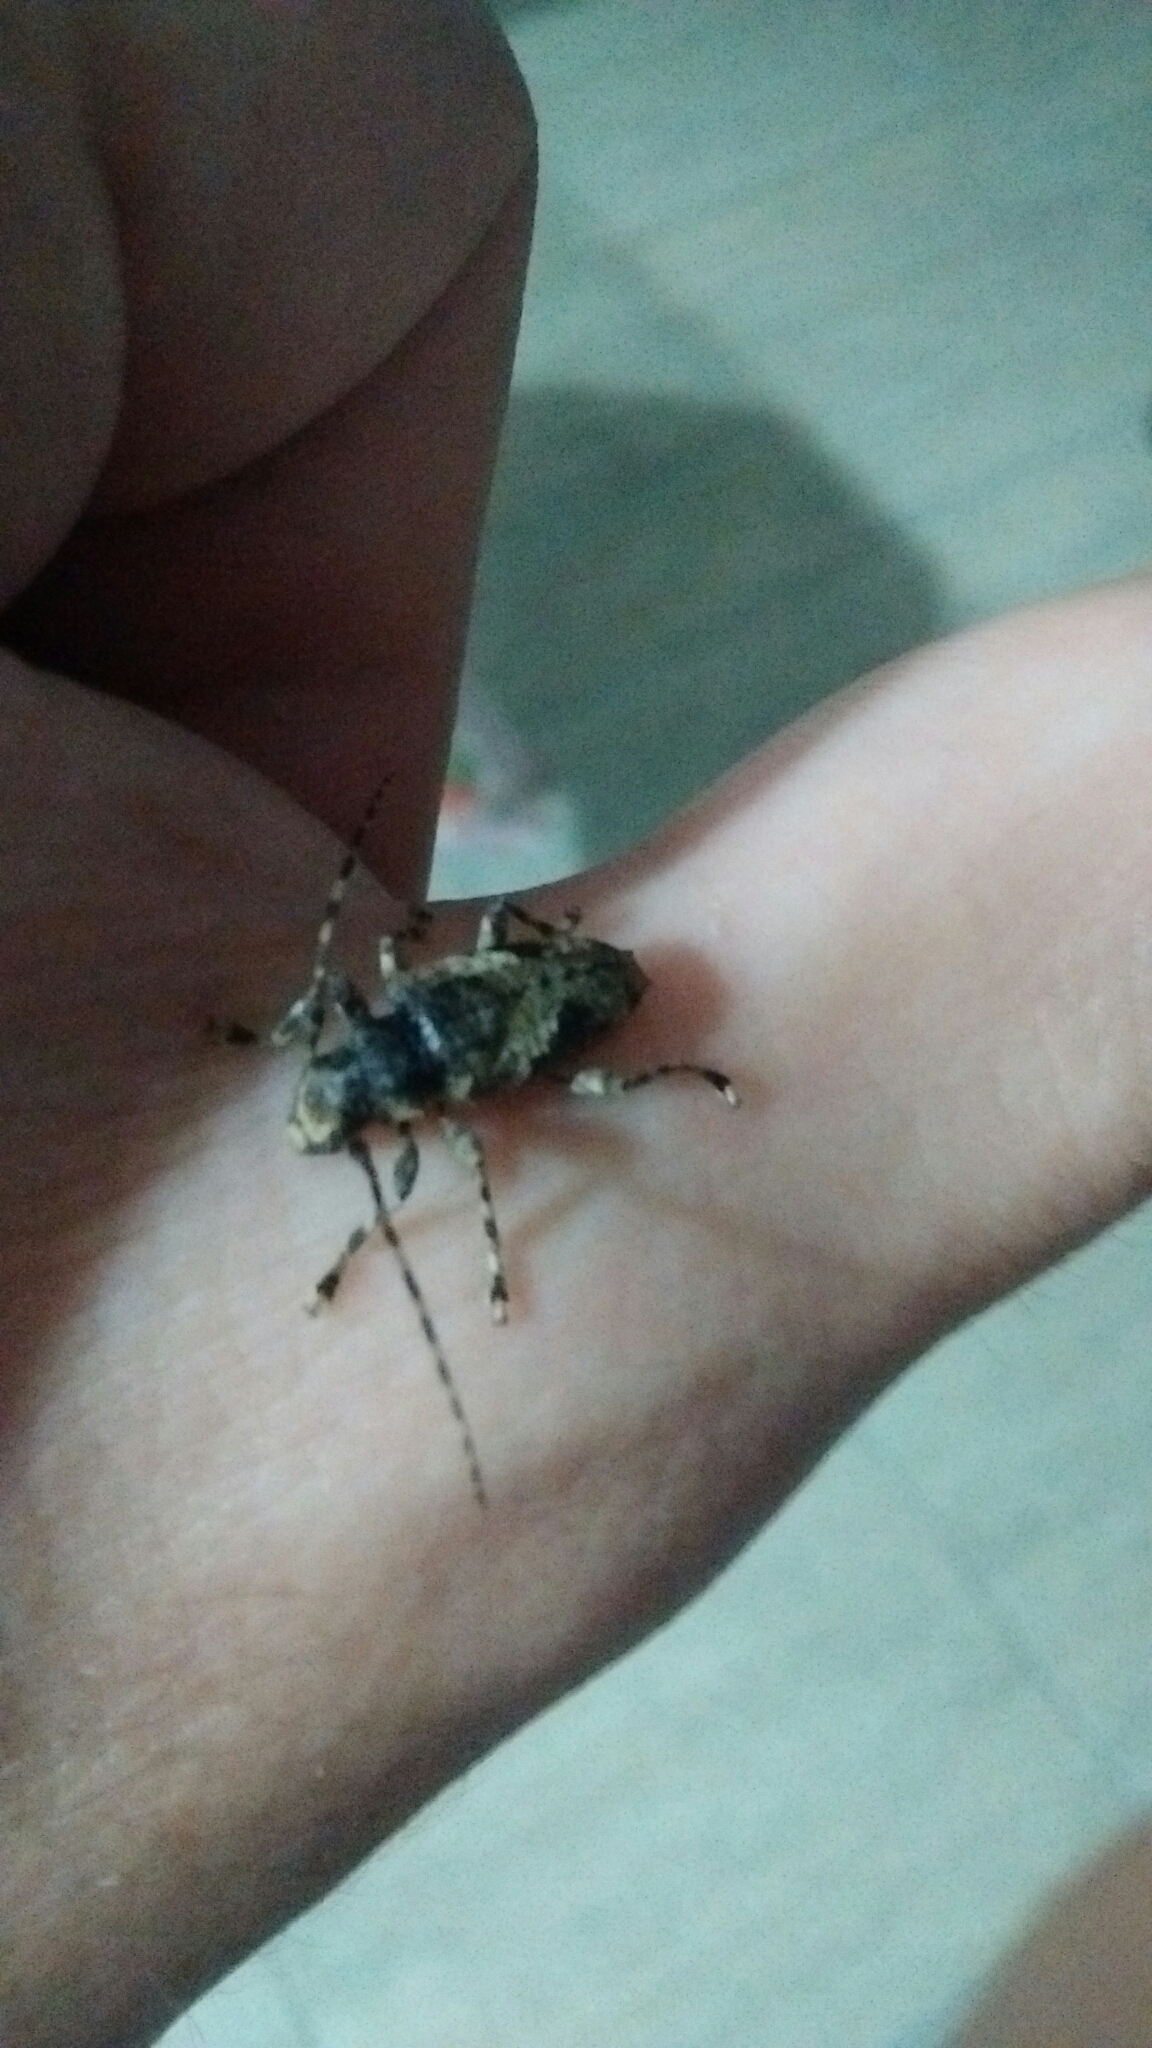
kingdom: Animalia
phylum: Arthropoda
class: Insecta
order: Coleoptera
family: Cerambycidae
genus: Psapharochrus
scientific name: Psapharochrus jaspideus
